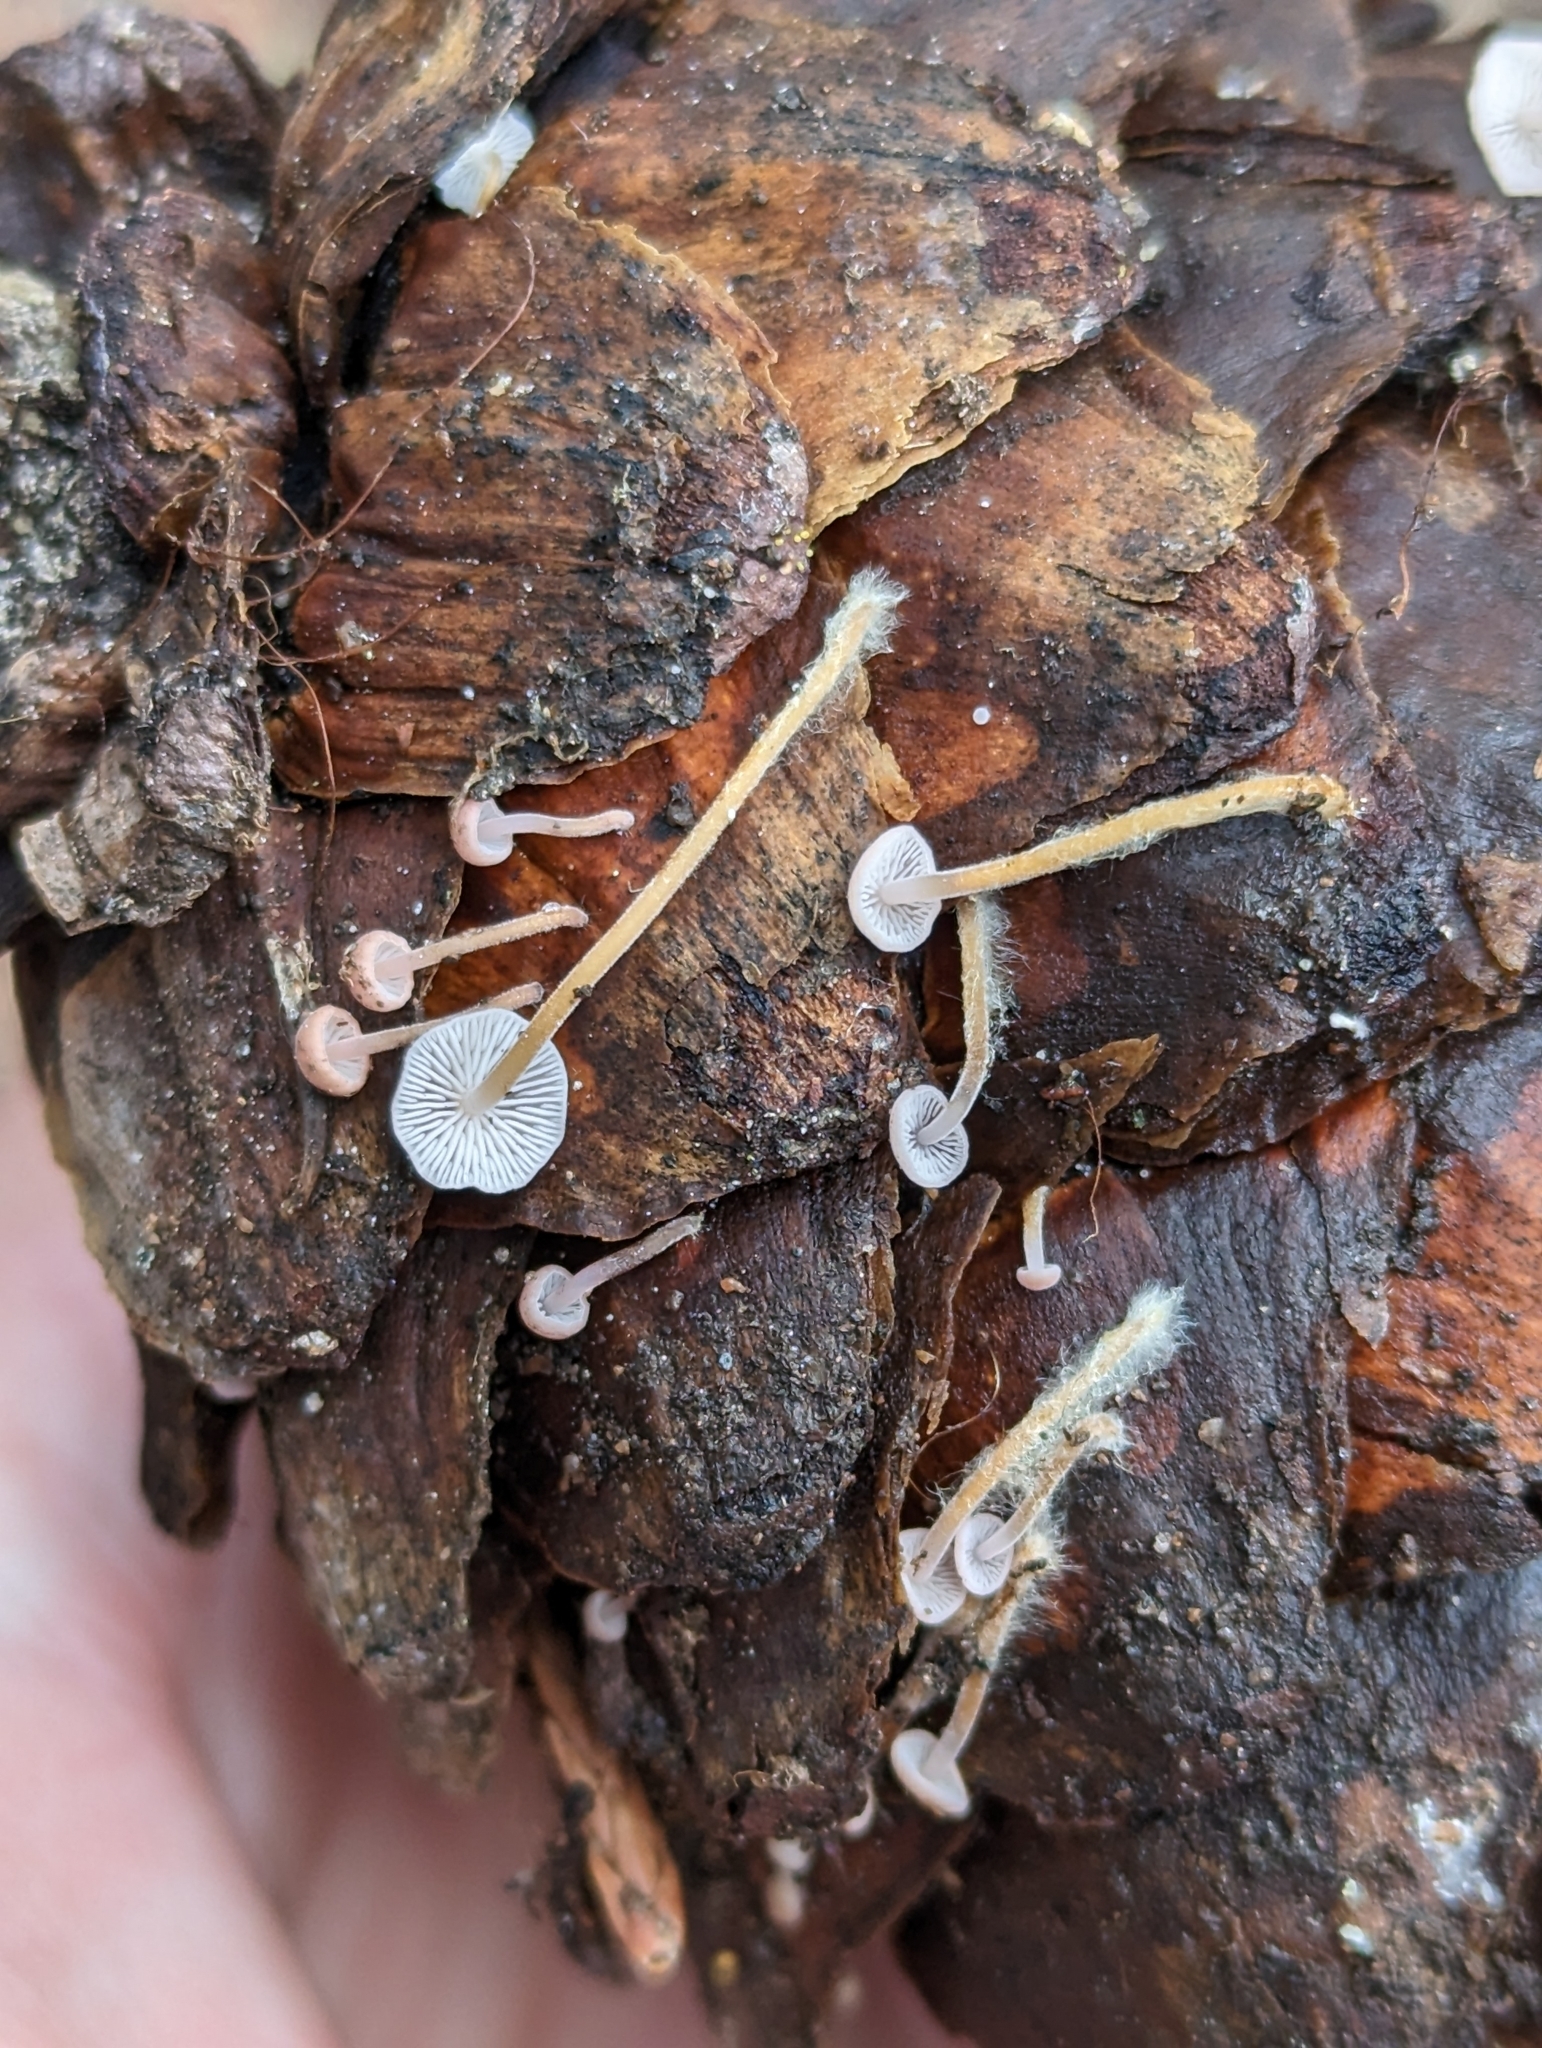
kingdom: Fungi
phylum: Basidiomycota
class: Agaricomycetes
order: Agaricales
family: Physalacriaceae
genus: Strobilurus
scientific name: Strobilurus diminutivus
